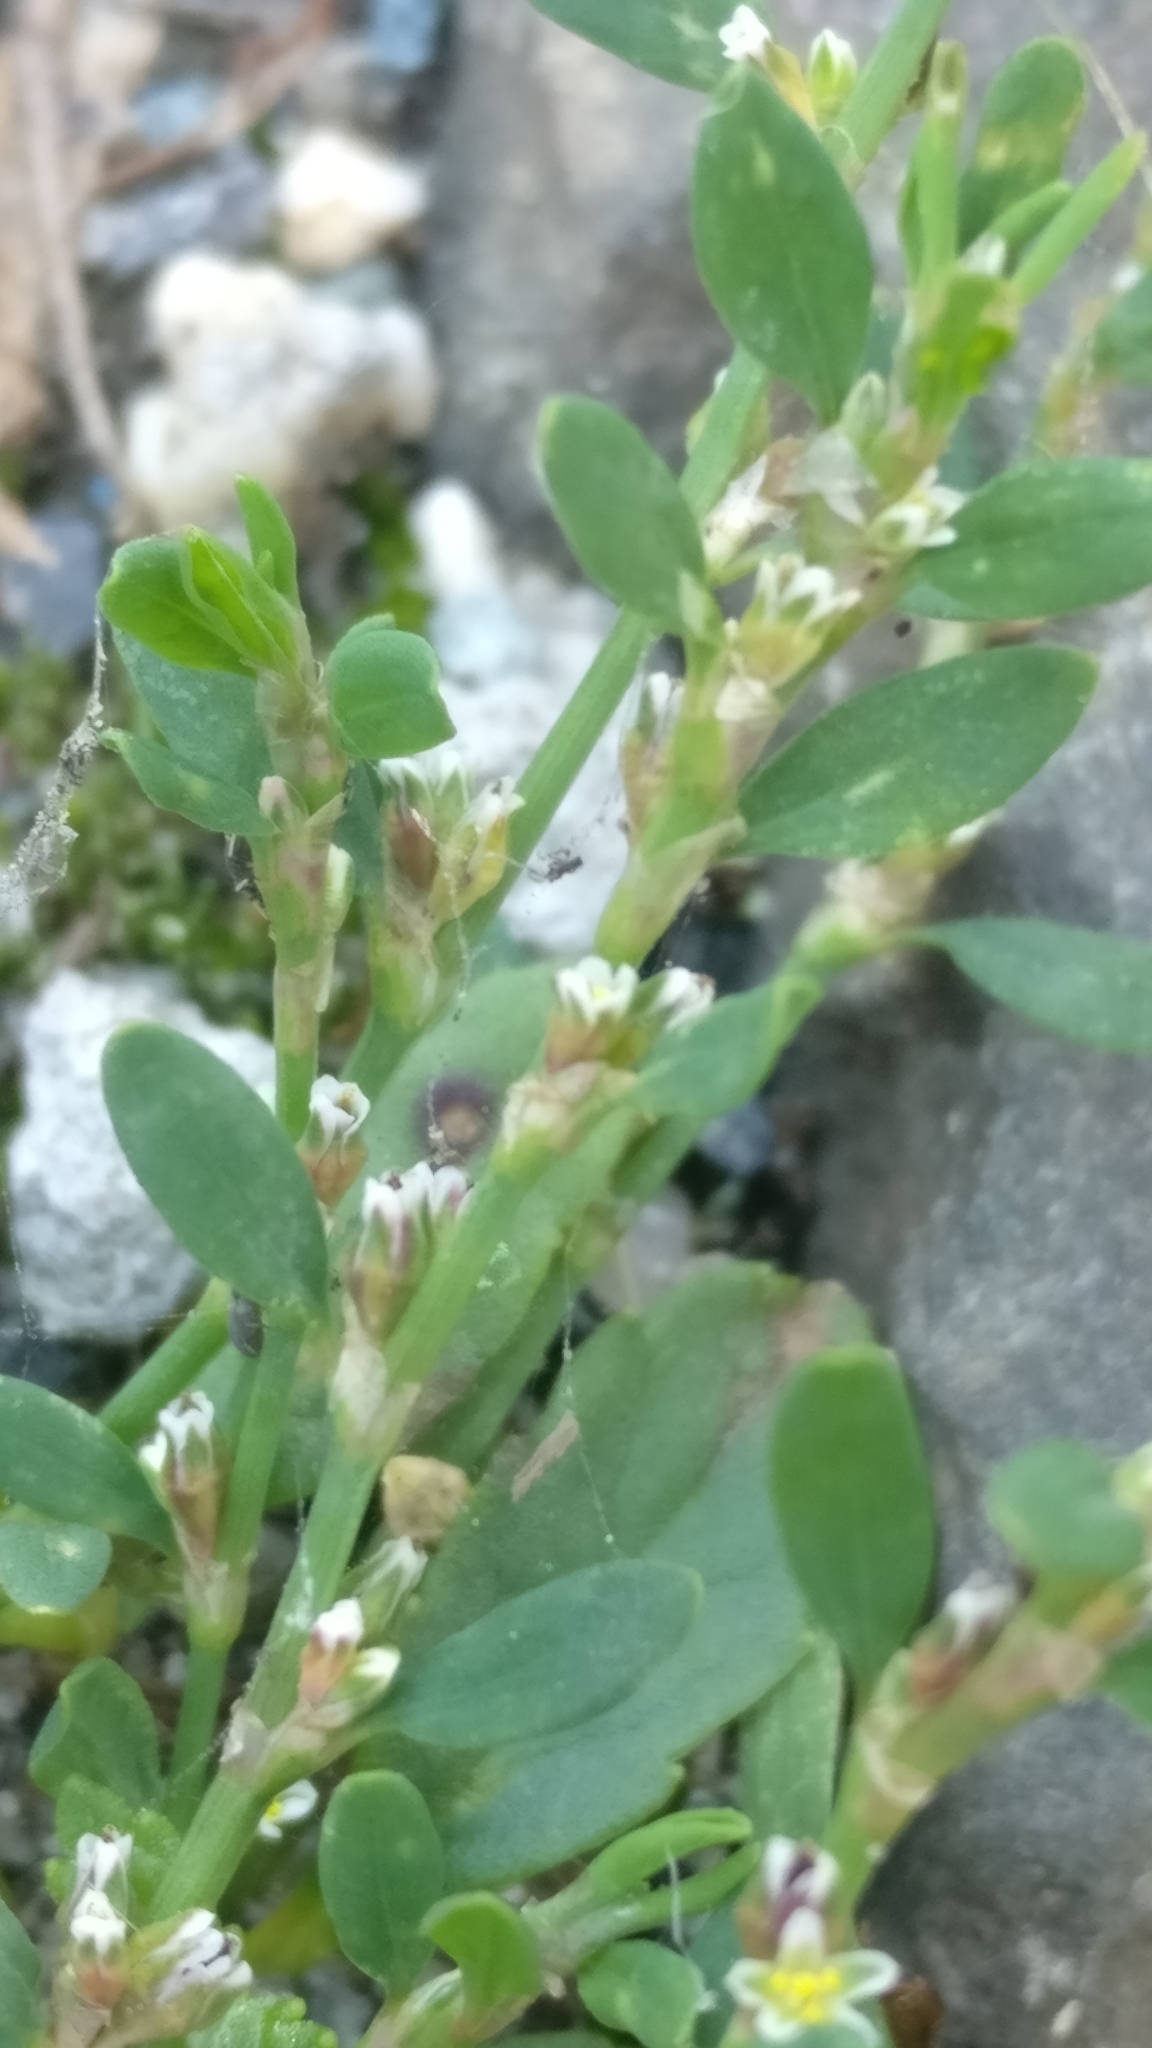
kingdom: Plantae
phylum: Tracheophyta
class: Magnoliopsida
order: Caryophyllales
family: Polygonaceae
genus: Polygonum
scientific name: Polygonum aviculare
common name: Prostrate knotweed
